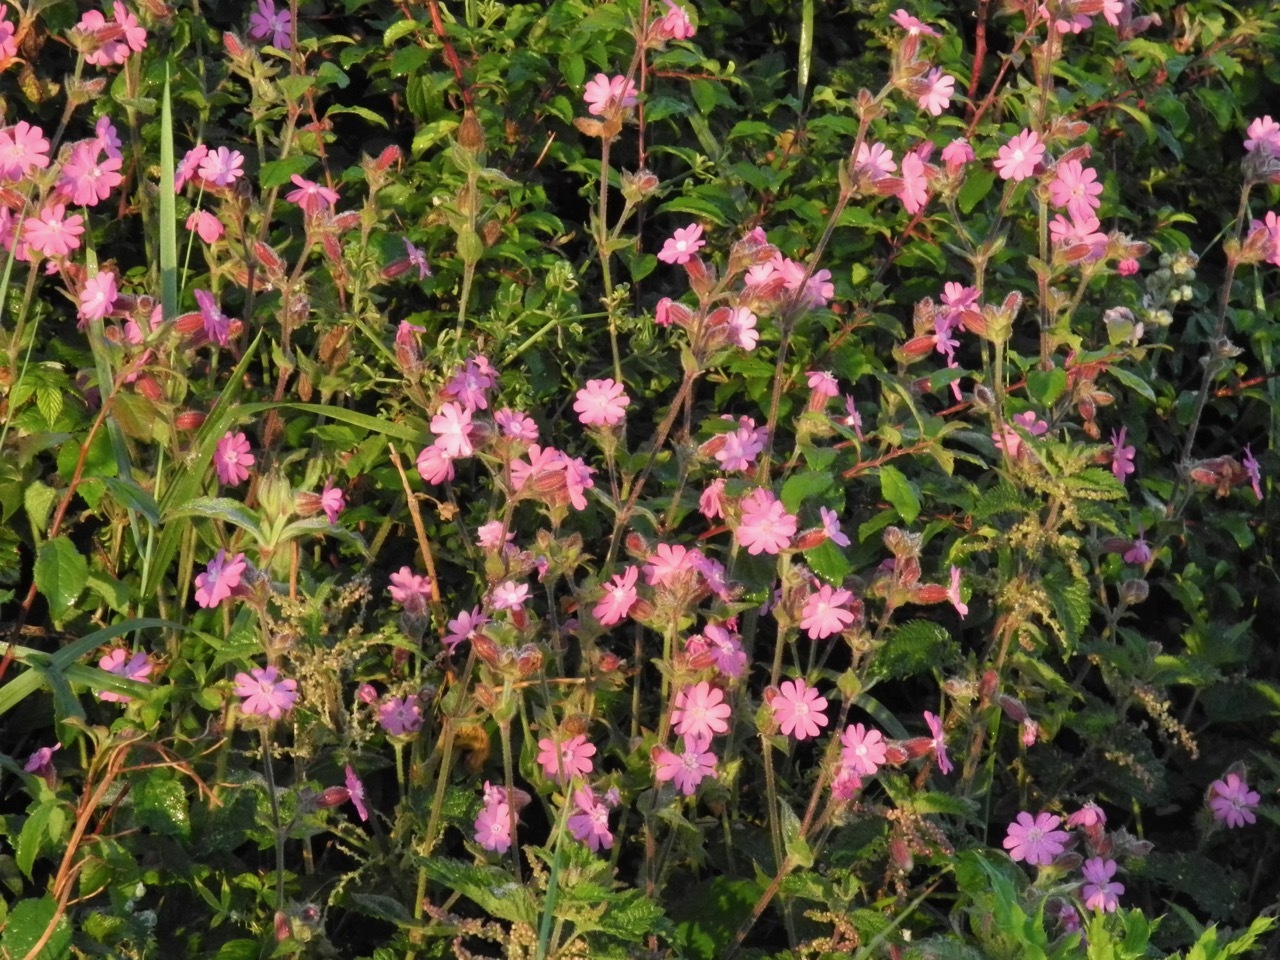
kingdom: Plantae
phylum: Tracheophyta
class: Magnoliopsida
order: Caryophyllales
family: Caryophyllaceae
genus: Silene
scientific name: Silene dioica
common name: Red campion
